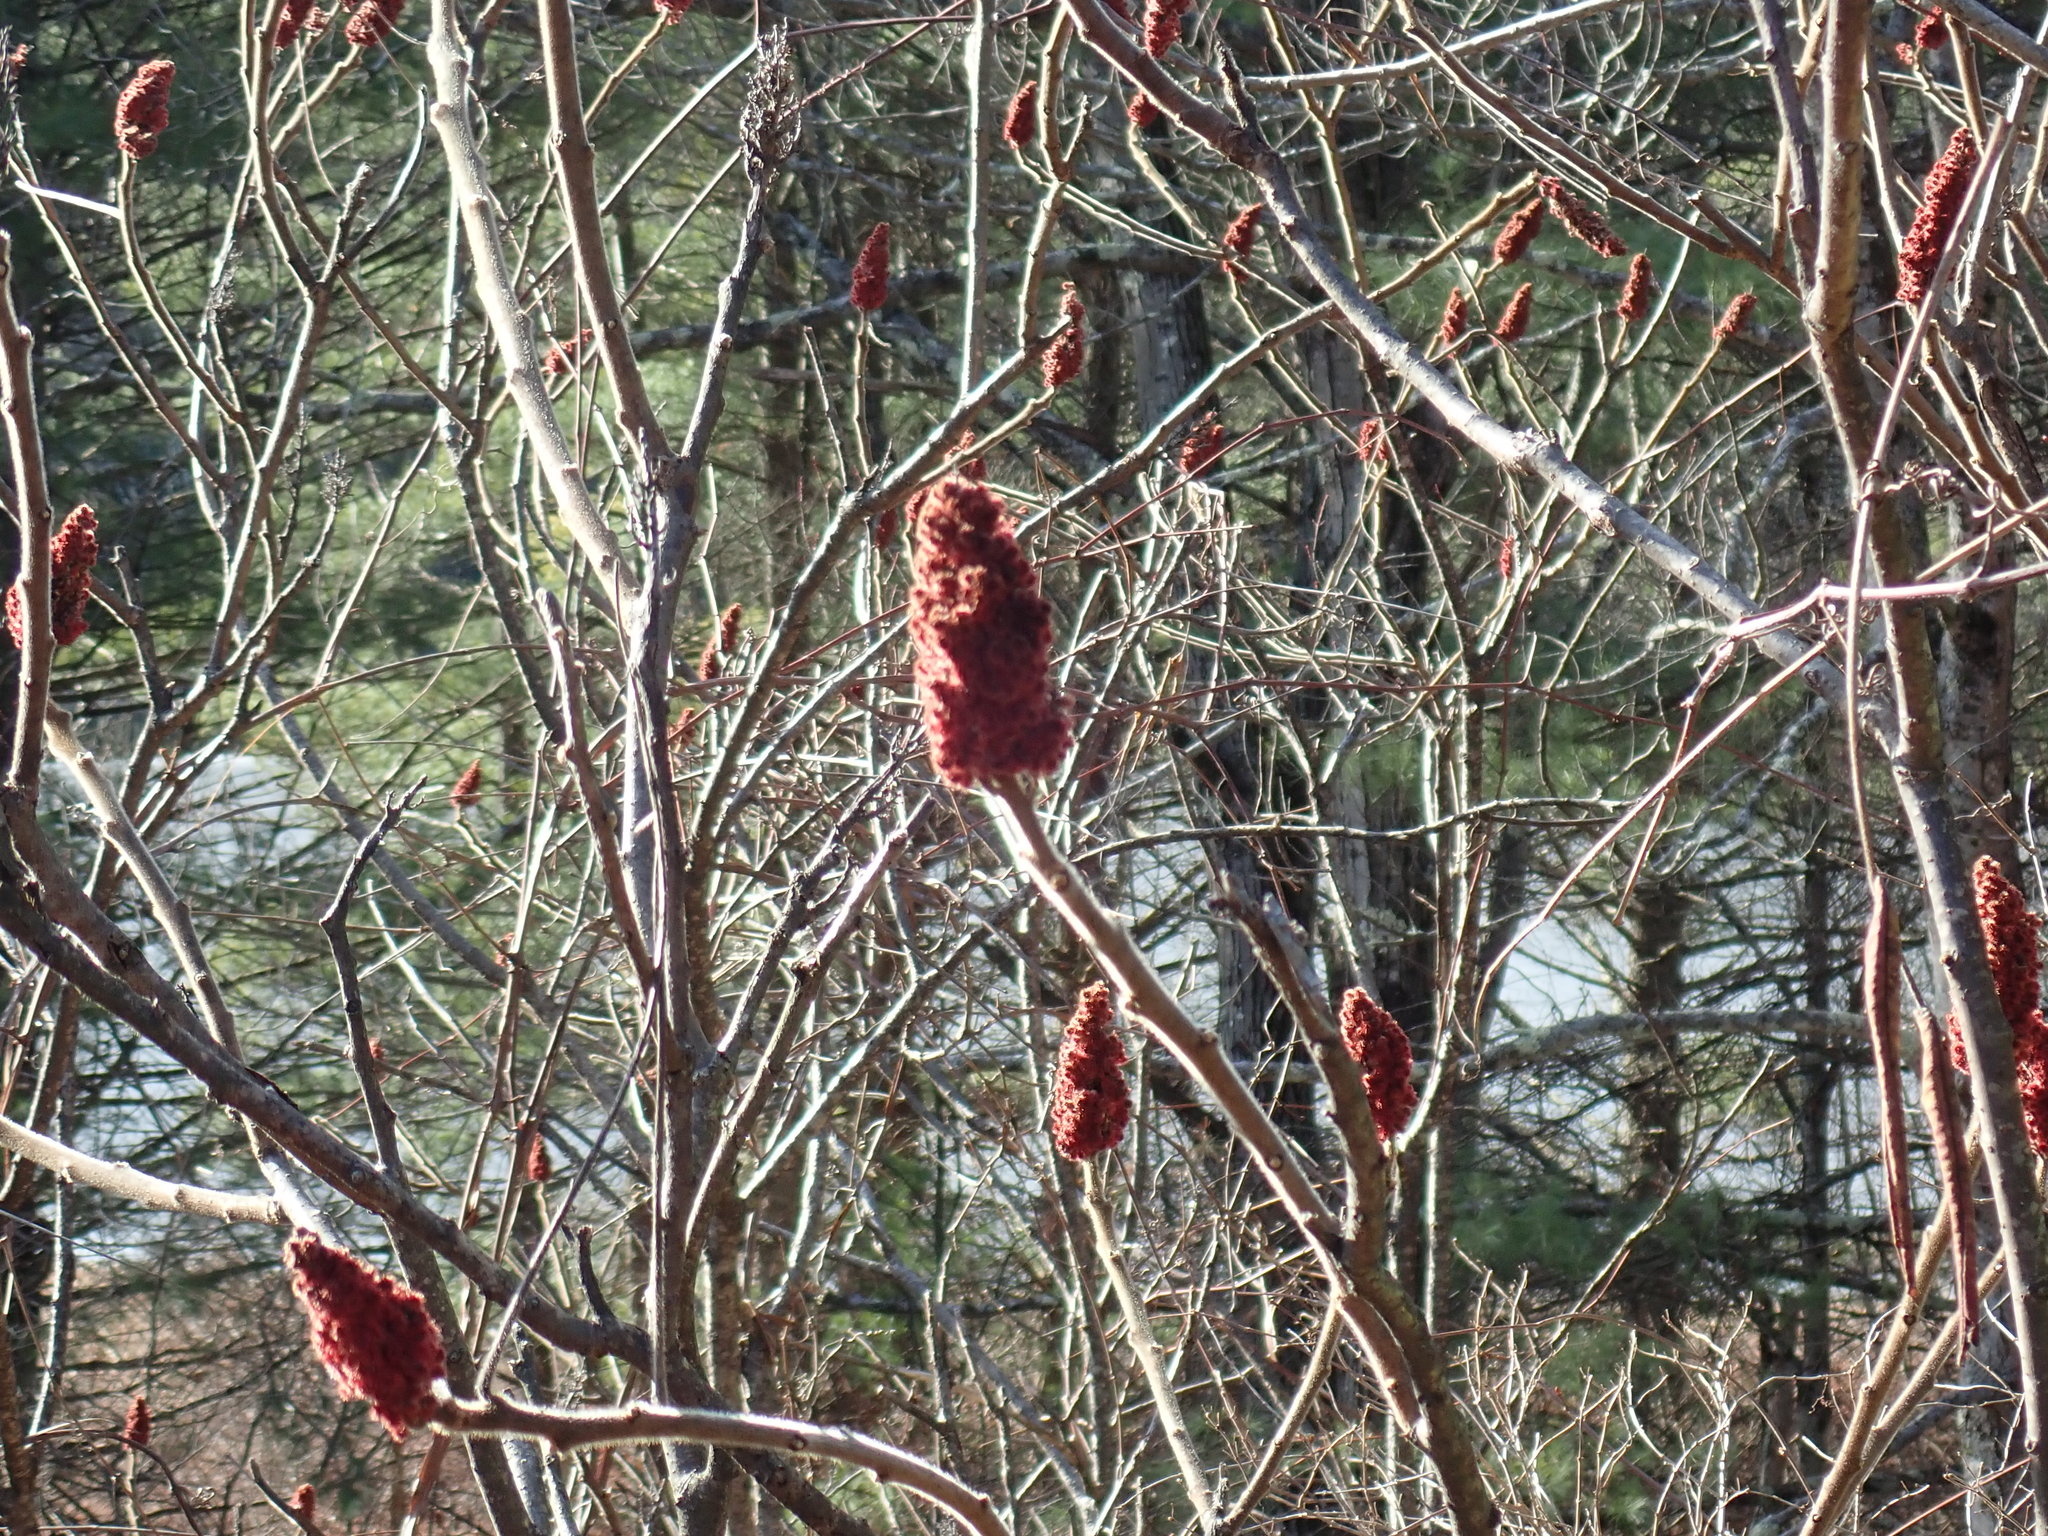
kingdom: Plantae
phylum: Tracheophyta
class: Magnoliopsida
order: Sapindales
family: Anacardiaceae
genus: Rhus
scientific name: Rhus typhina
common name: Staghorn sumac
